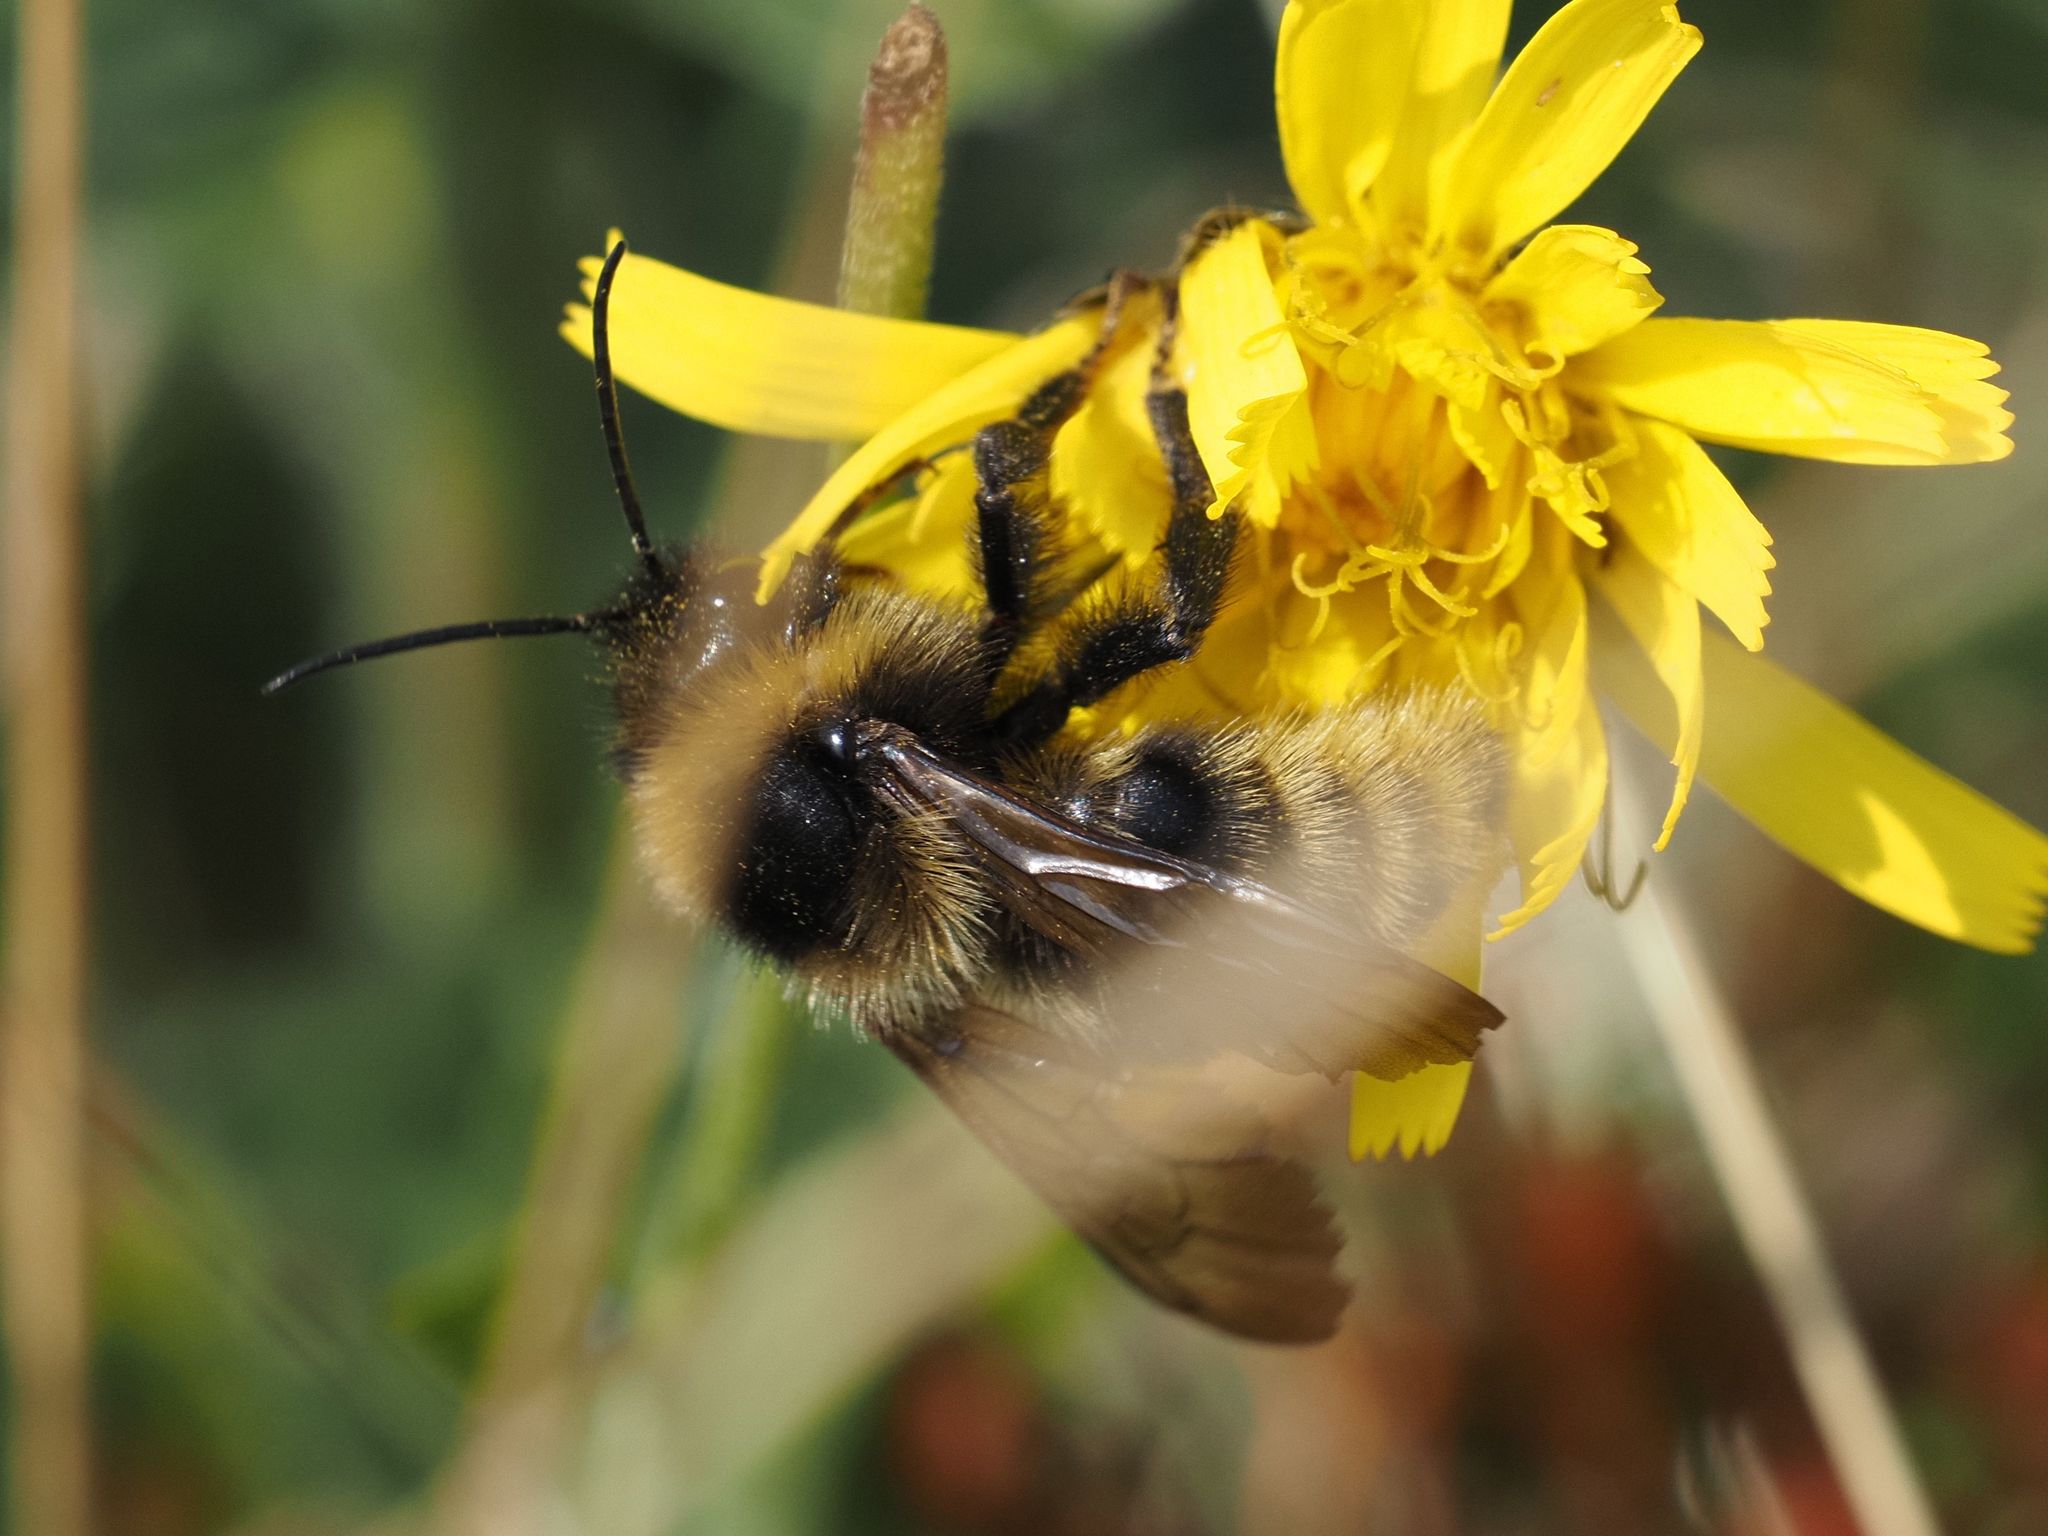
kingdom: Animalia
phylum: Arthropoda
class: Insecta
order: Hymenoptera
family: Apidae
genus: Bombus
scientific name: Bombus campestris
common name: Field cuckoo-bee
